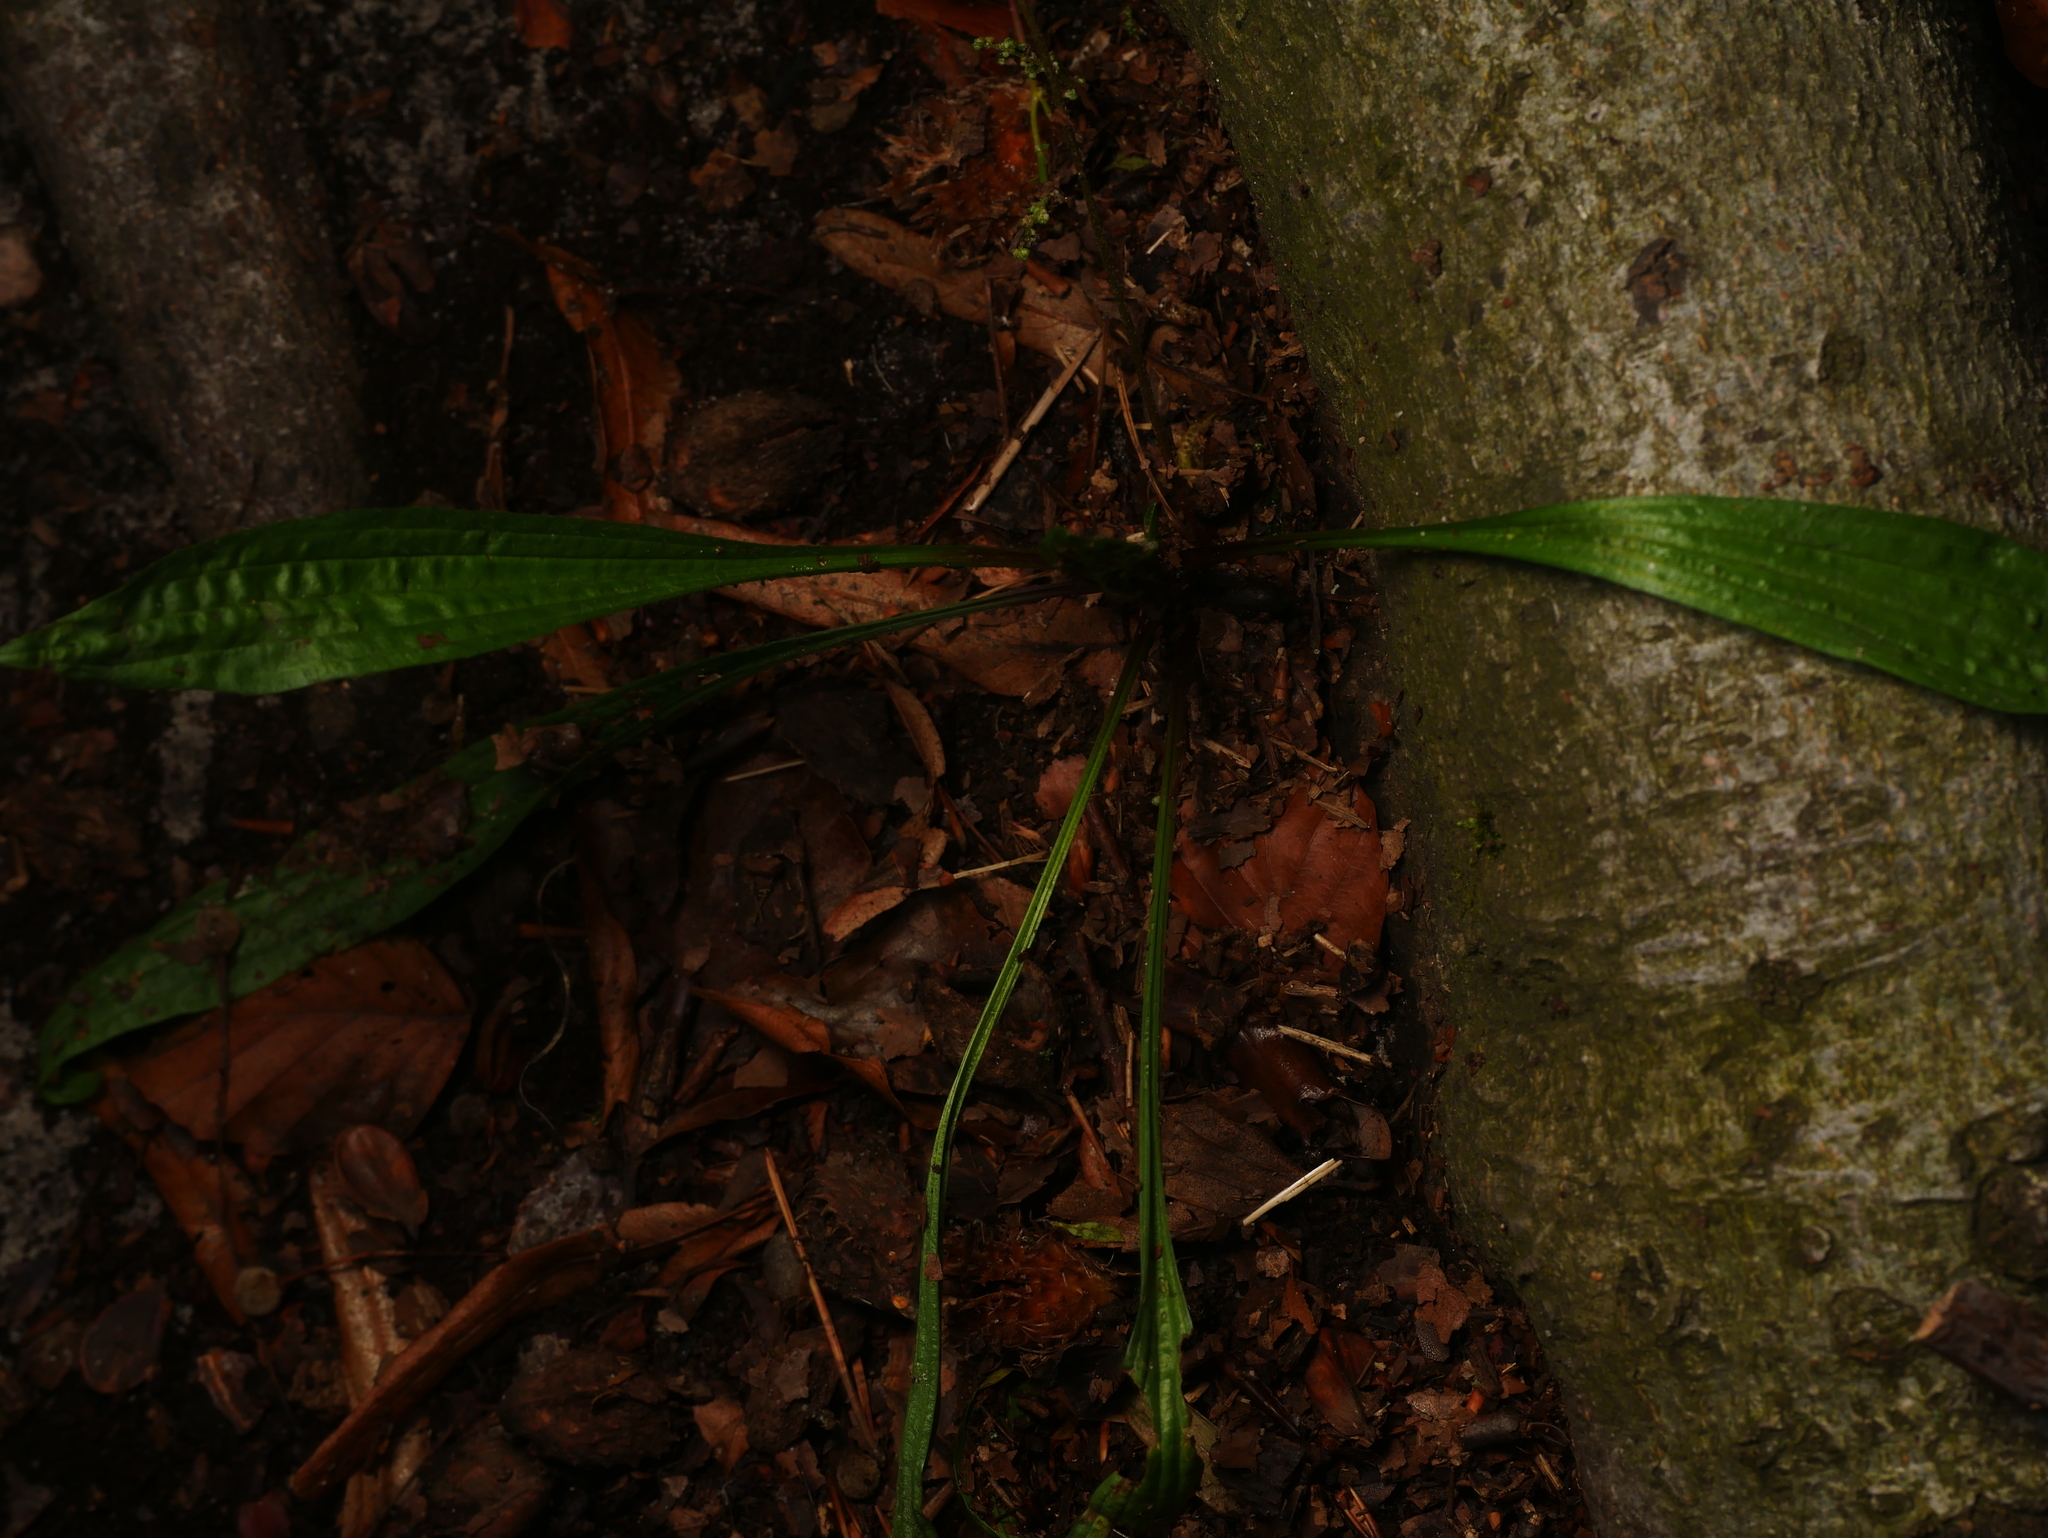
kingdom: Plantae
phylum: Tracheophyta
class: Magnoliopsida
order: Lamiales
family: Plantaginaceae
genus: Plantago
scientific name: Plantago lanceolata
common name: Ribwort plantain
